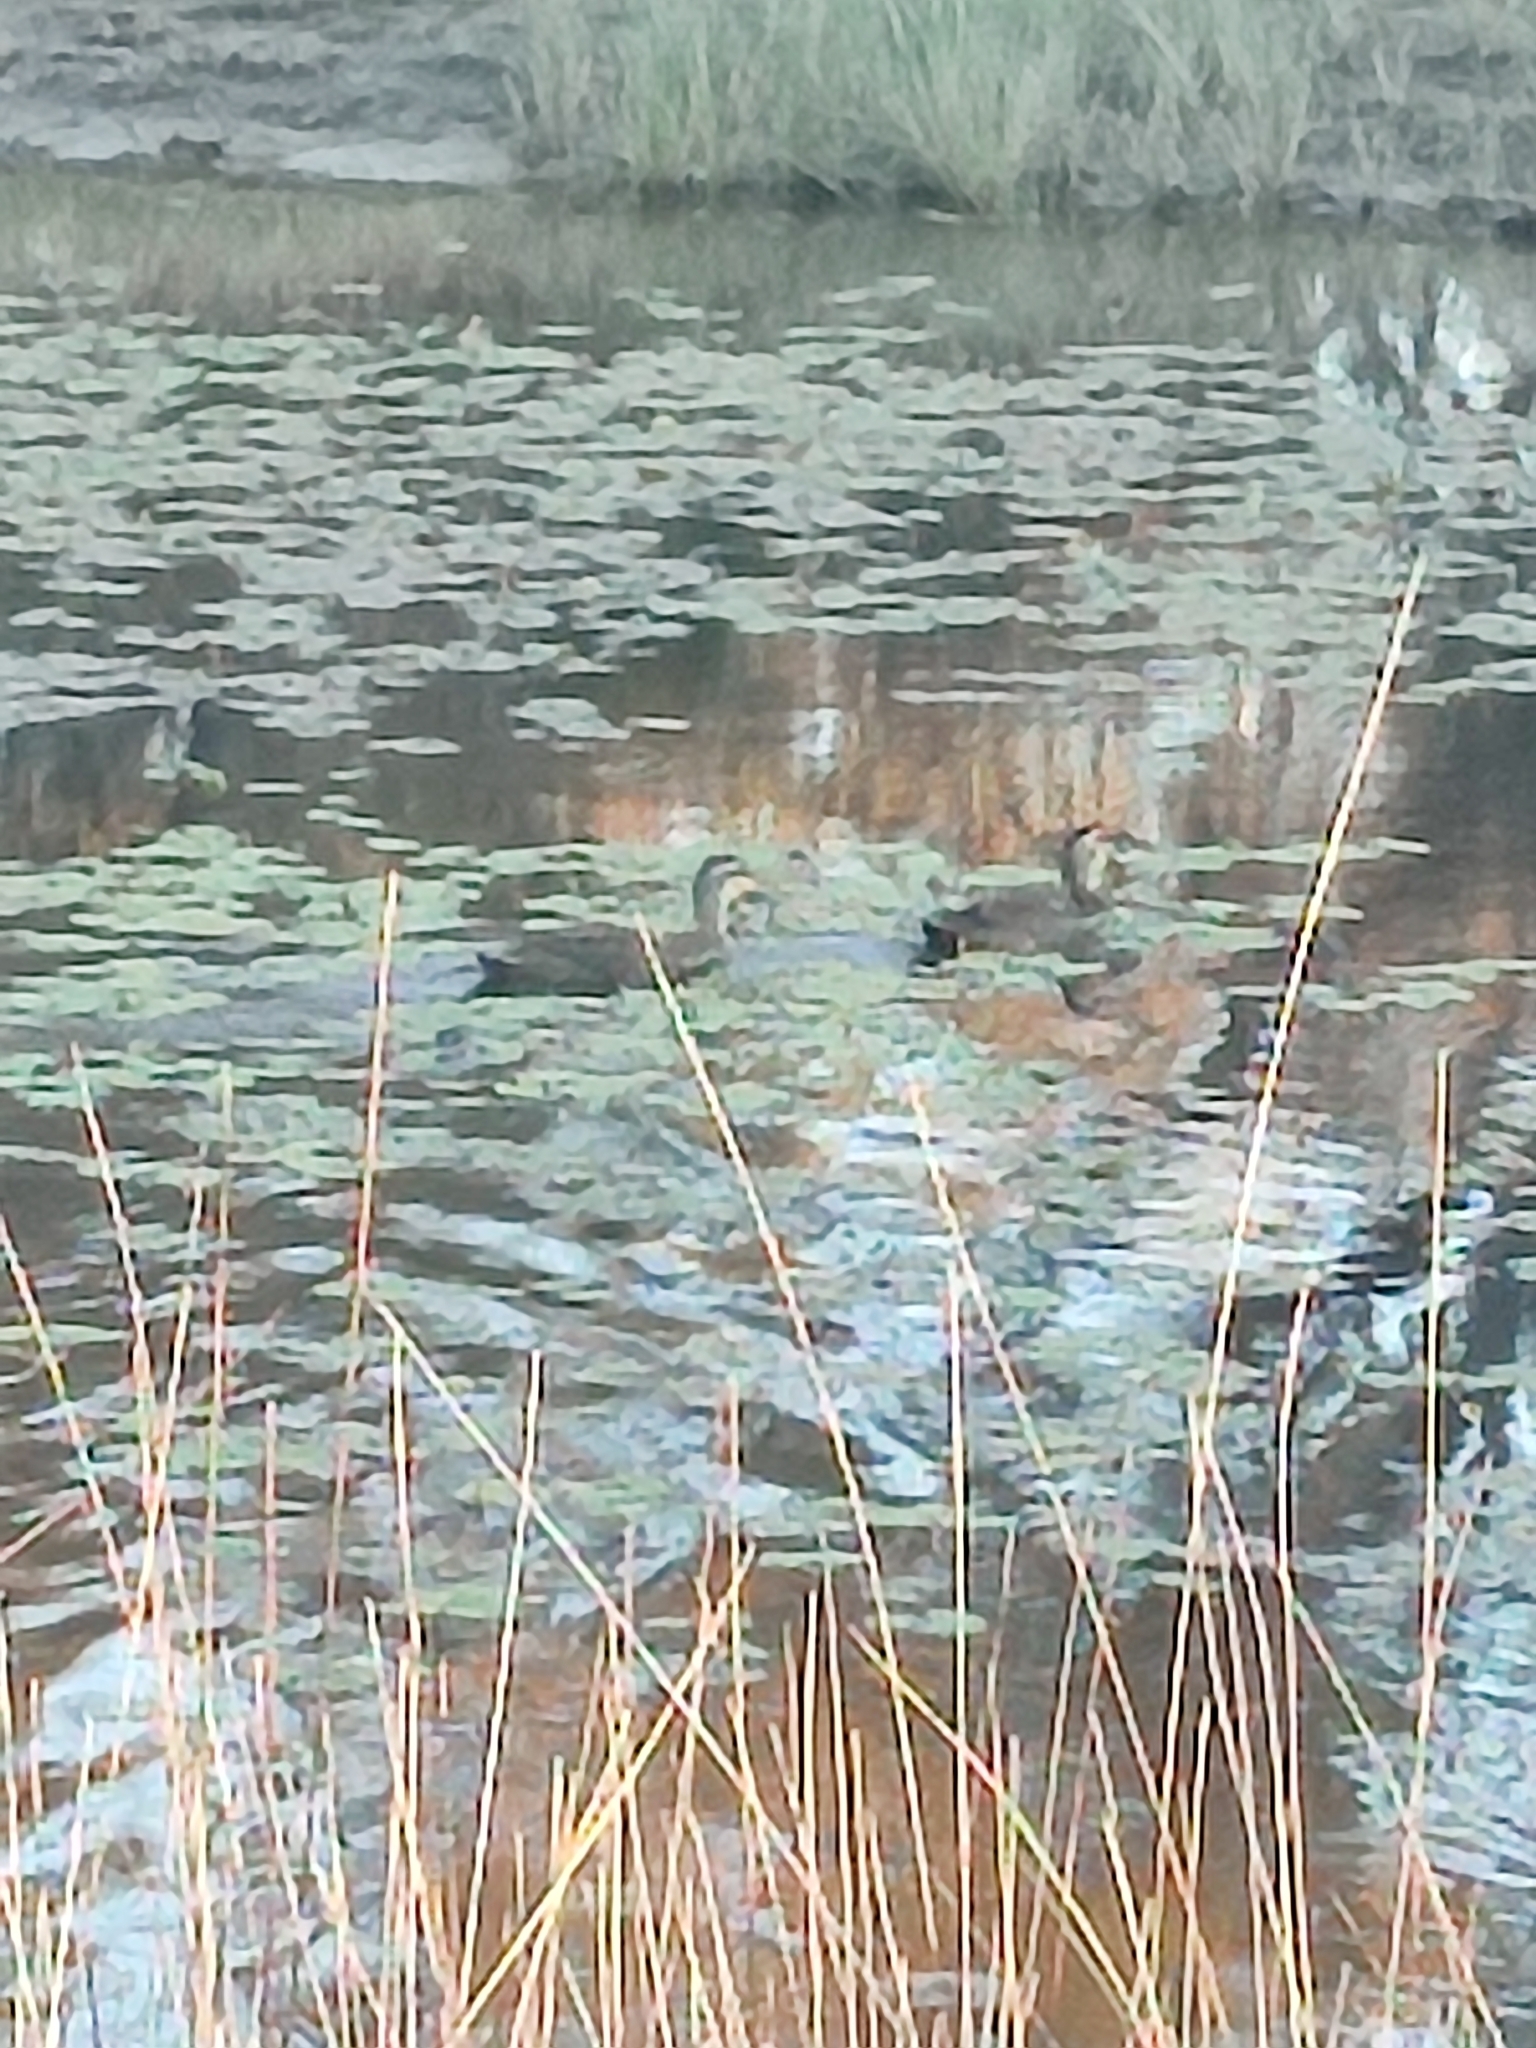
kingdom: Animalia
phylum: Chordata
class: Aves
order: Anseriformes
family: Anatidae
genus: Anas
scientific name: Anas superciliosa
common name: Pacific black duck
